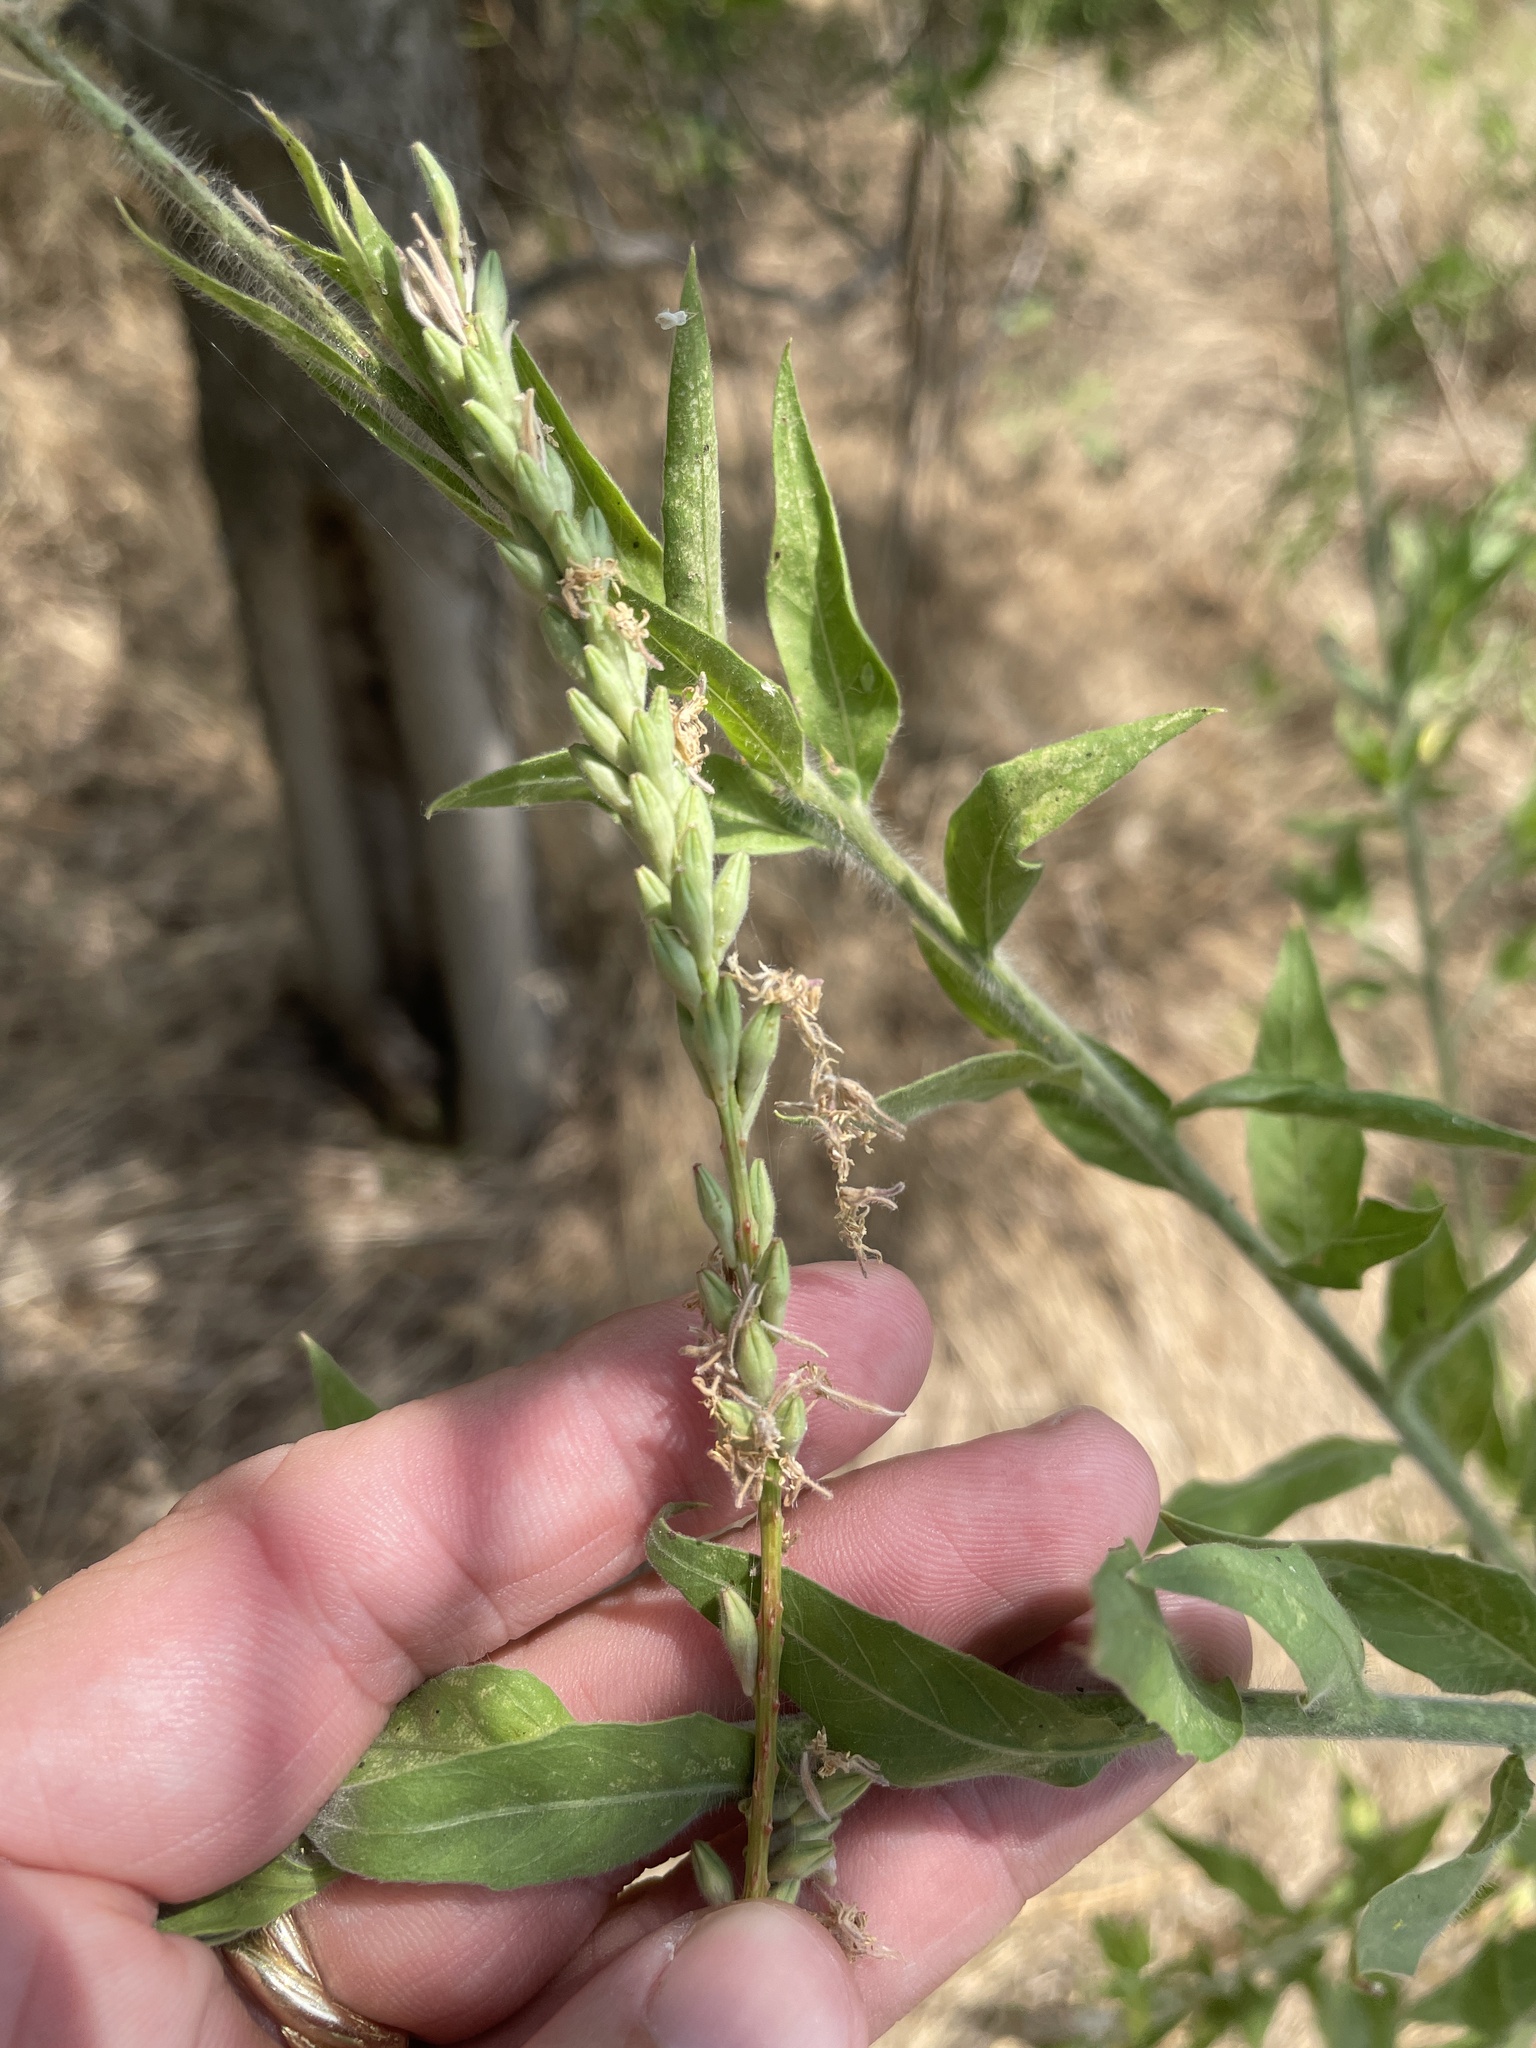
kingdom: Plantae
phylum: Tracheophyta
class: Magnoliopsida
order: Myrtales
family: Onagraceae
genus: Oenothera
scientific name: Oenothera curtiflora
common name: Velvetweed
